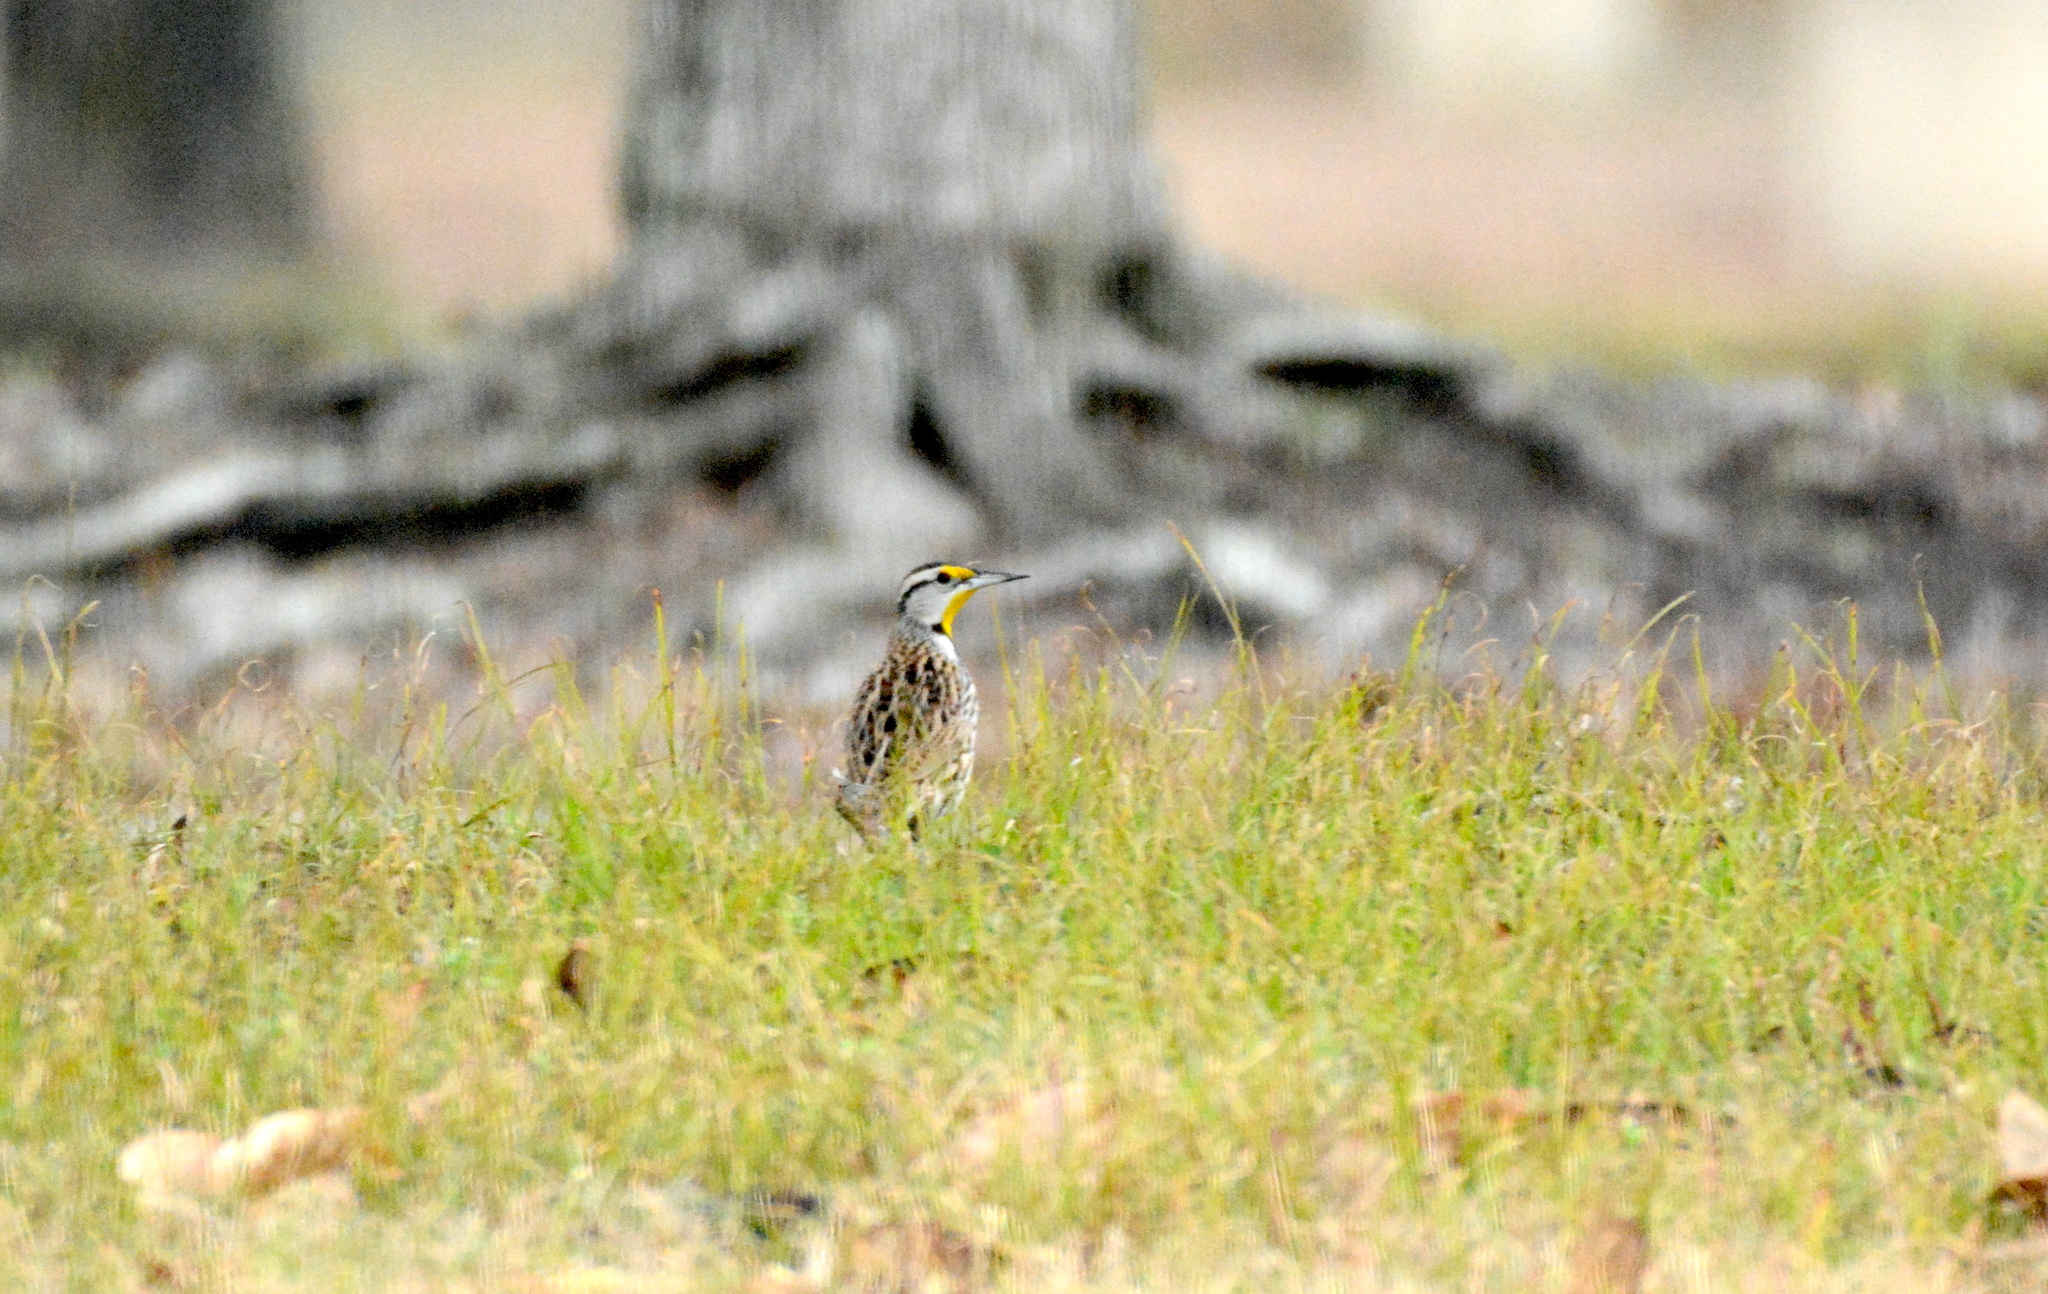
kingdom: Animalia
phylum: Chordata
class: Aves
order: Passeriformes
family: Icteridae
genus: Sturnella
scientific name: Sturnella magna
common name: Eastern meadowlark
